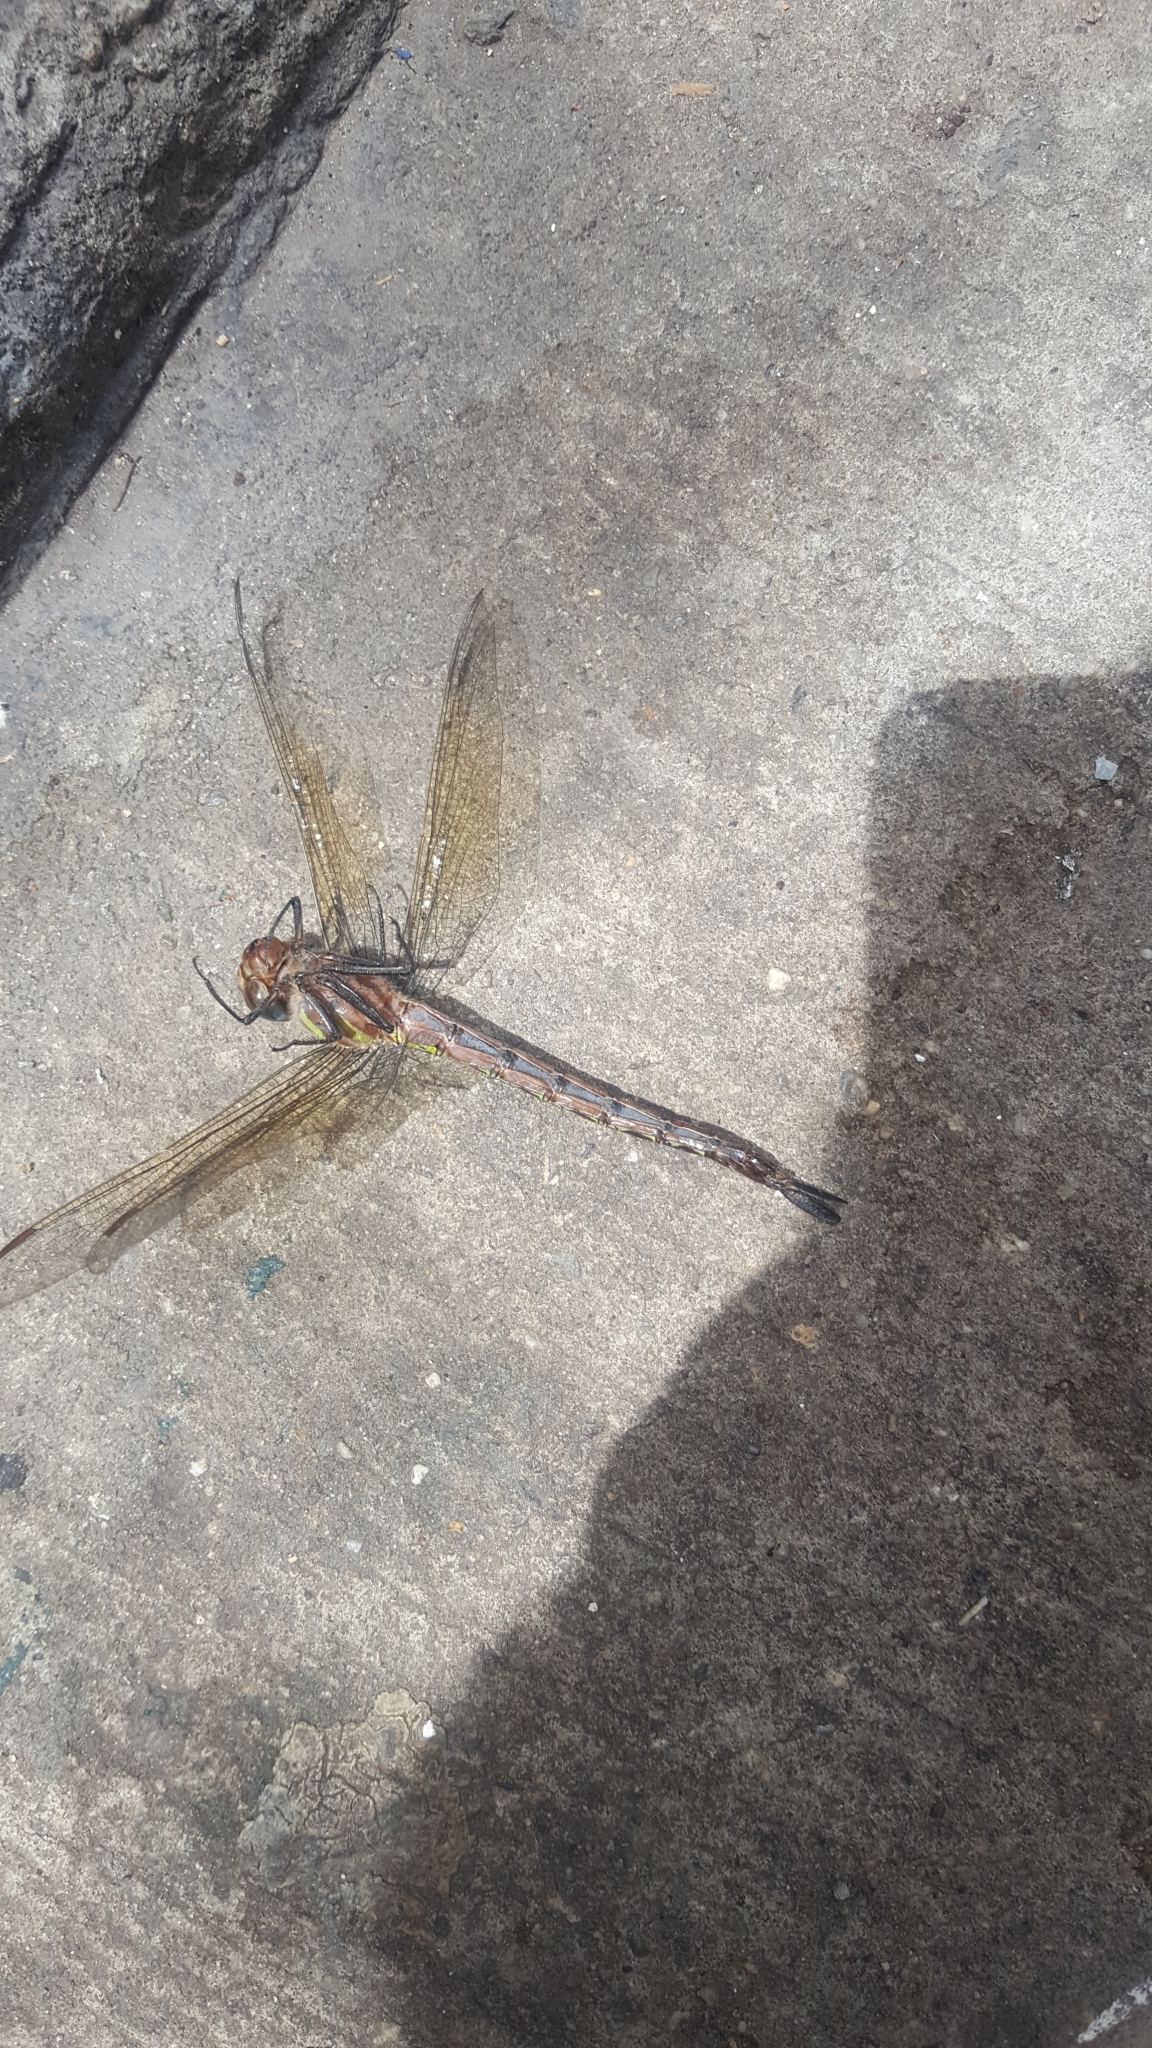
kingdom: Animalia
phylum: Arthropoda
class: Insecta
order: Odonata
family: Aeshnidae
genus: Epiaeschna
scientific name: Epiaeschna heros
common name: Swamp darner
